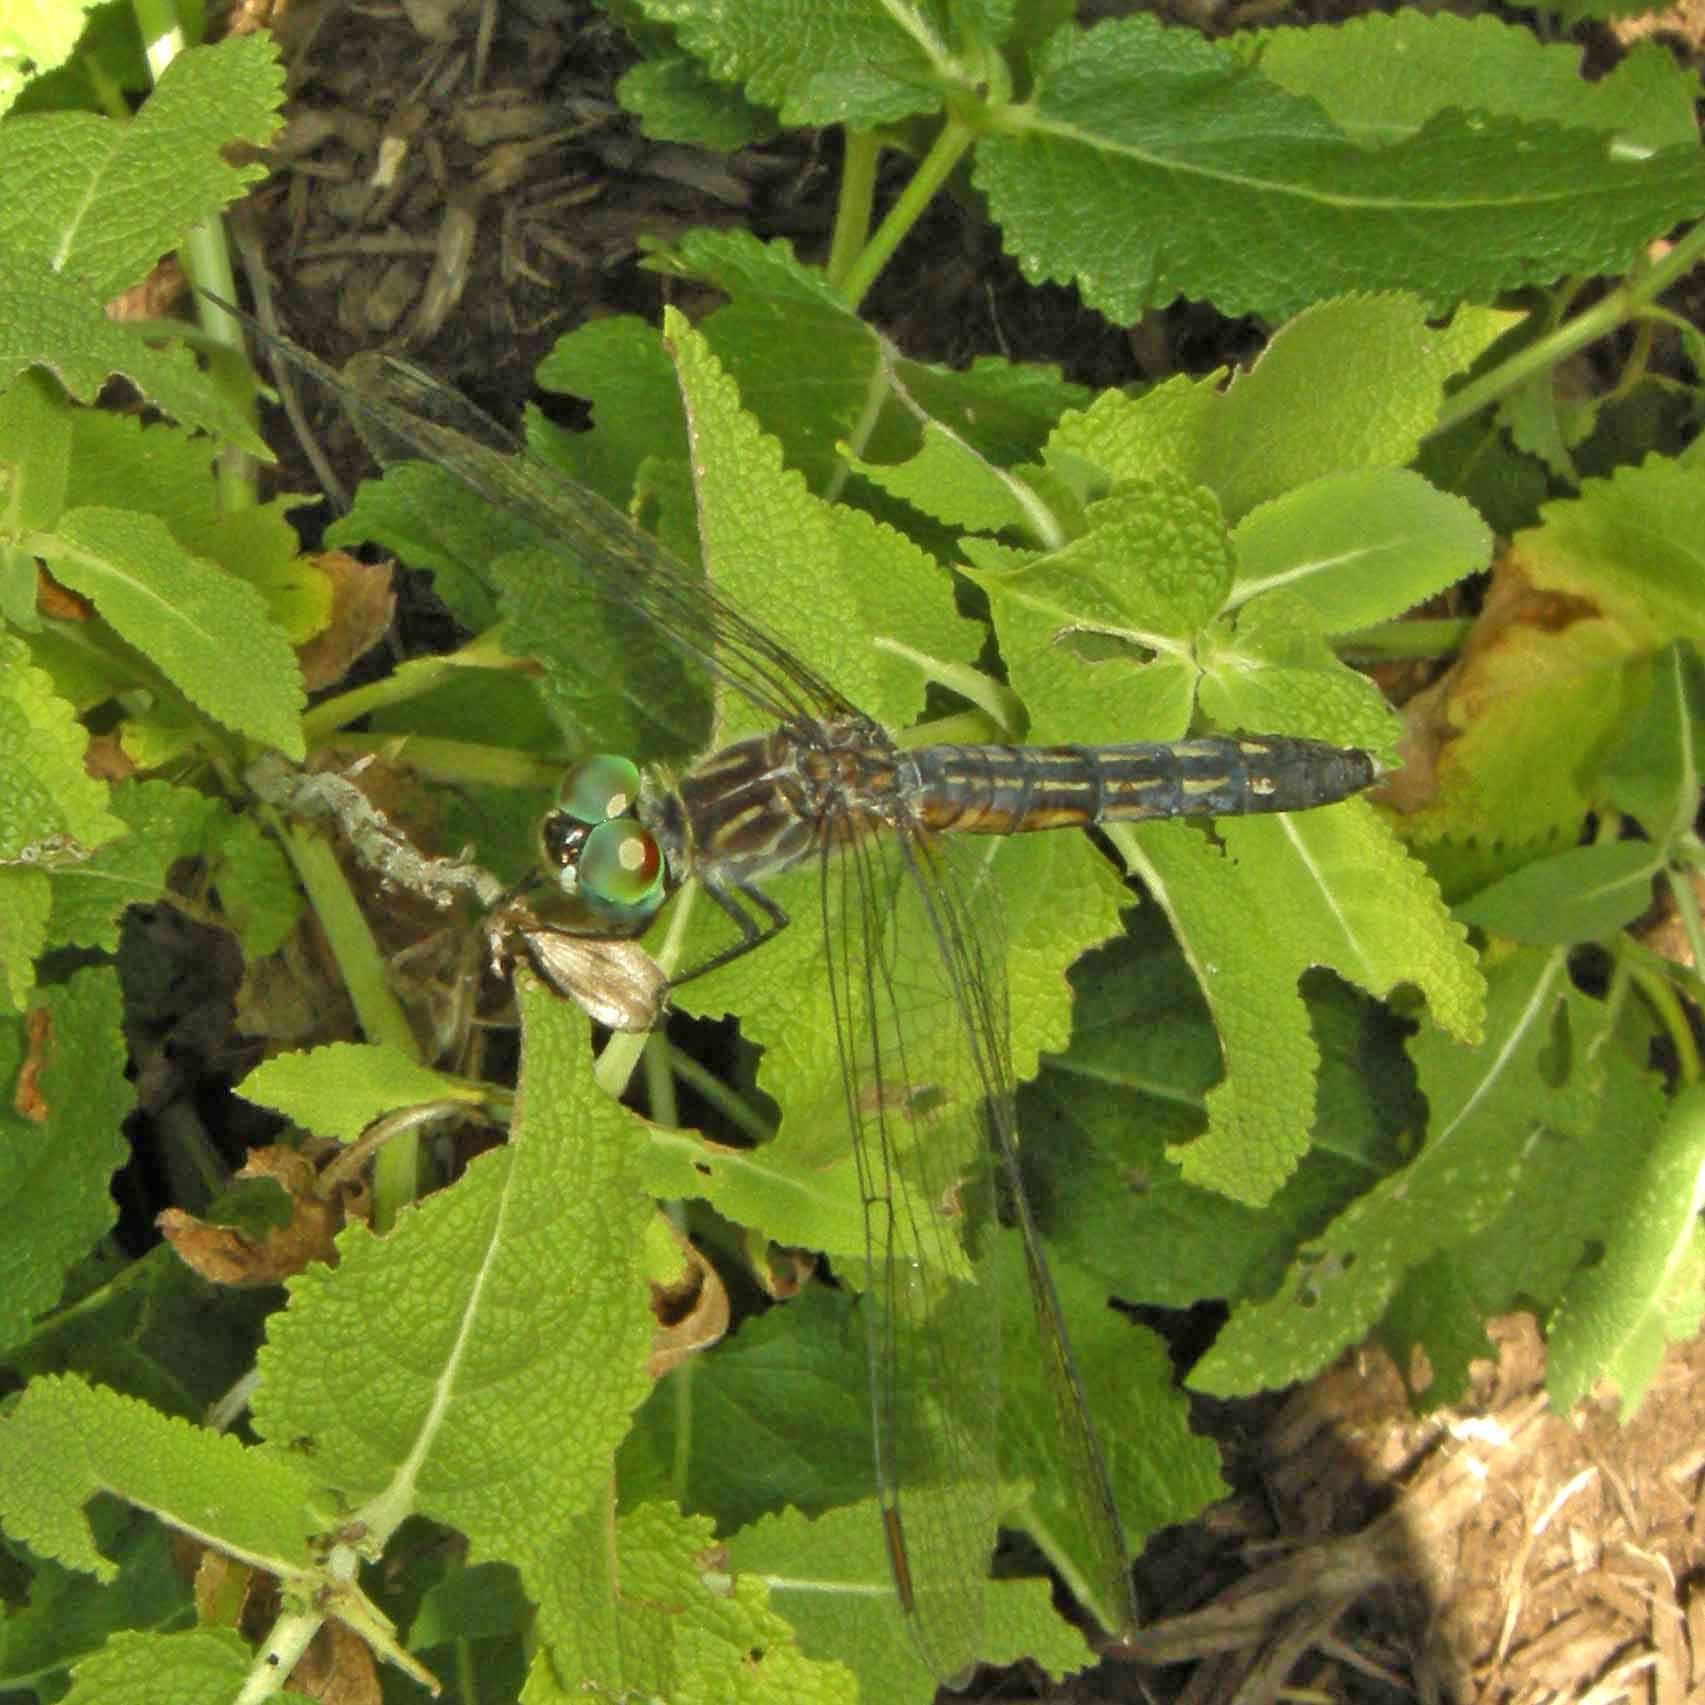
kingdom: Animalia
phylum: Arthropoda
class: Insecta
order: Odonata
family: Libellulidae
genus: Pachydiplax
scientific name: Pachydiplax longipennis
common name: Blue dasher
